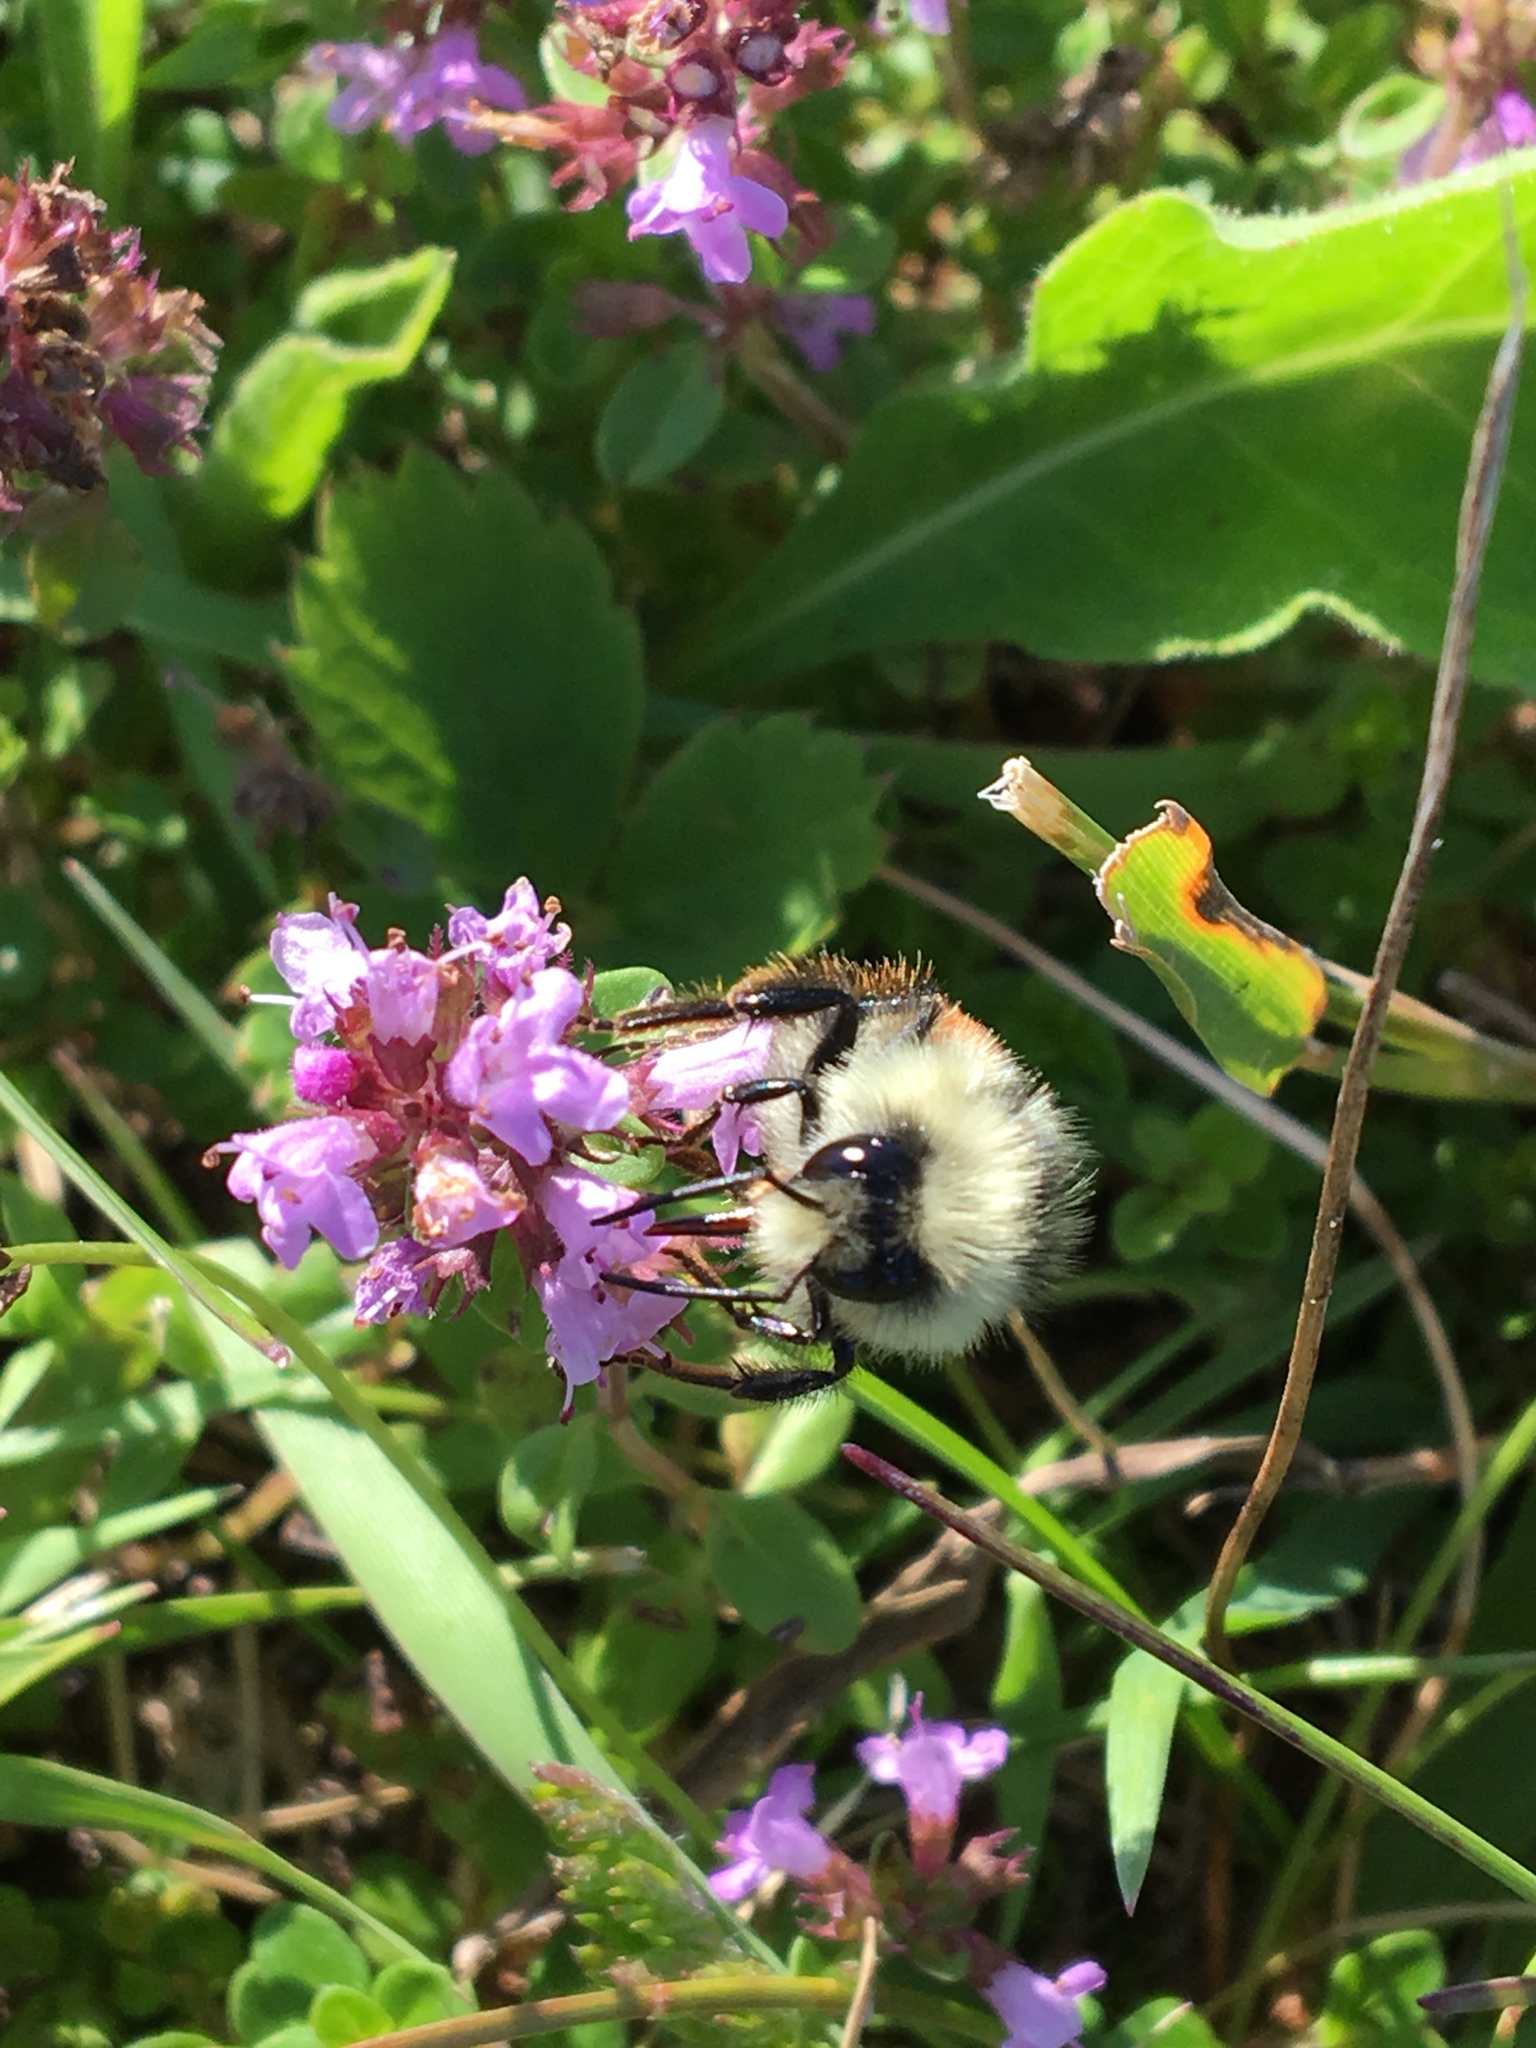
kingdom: Animalia
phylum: Arthropoda
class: Insecta
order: Hymenoptera
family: Apidae
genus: Bombus
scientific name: Bombus ternarius
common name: Tri-colored bumble bee
